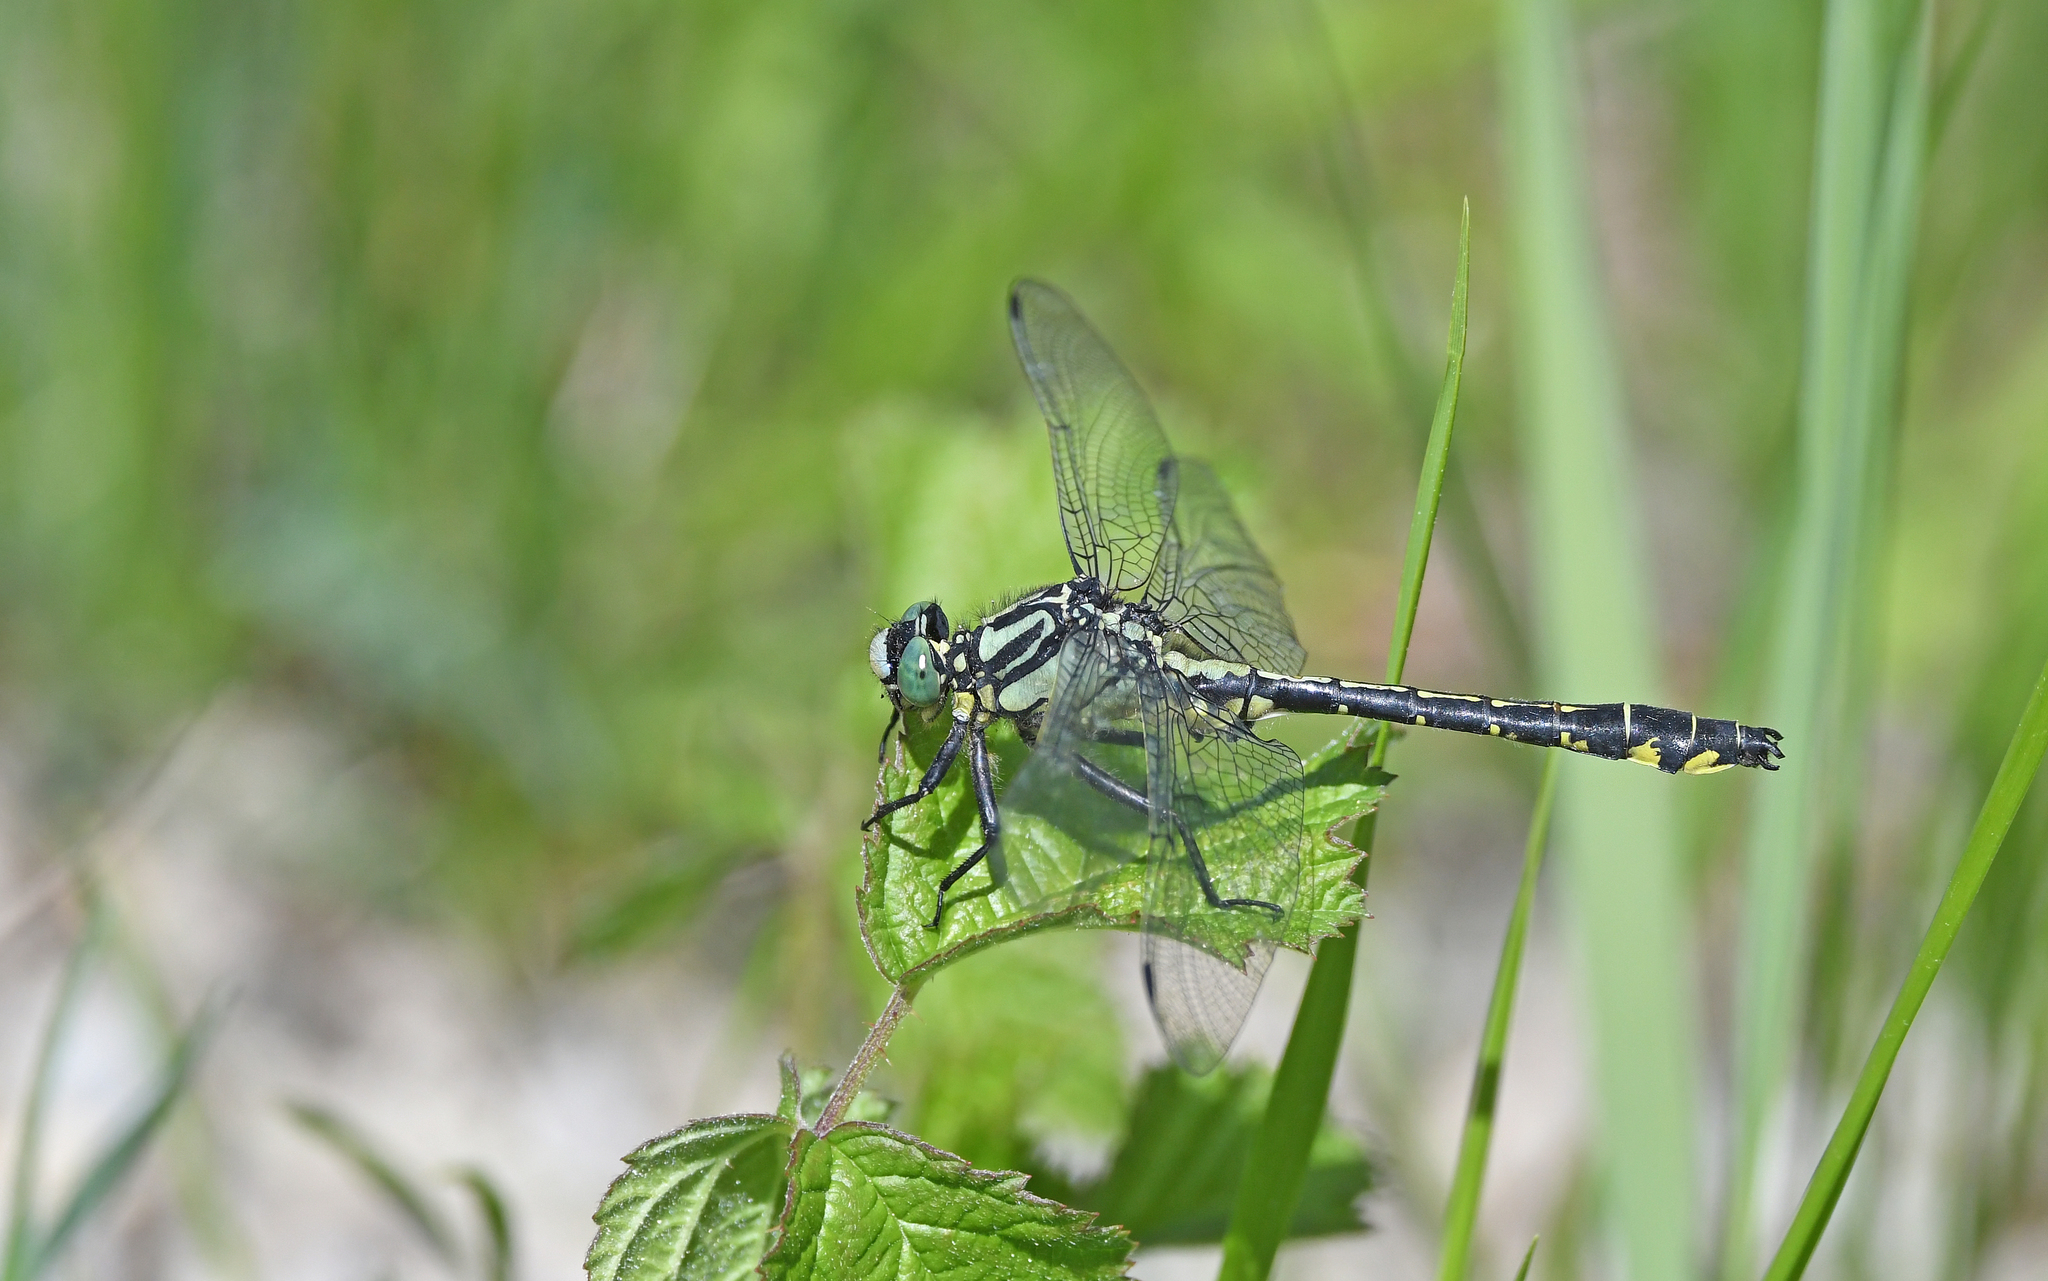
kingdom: Animalia
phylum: Arthropoda
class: Insecta
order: Odonata
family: Gomphidae
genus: Gomphus
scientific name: Gomphus vulgatissimus
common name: Club-tailed dragonfly
